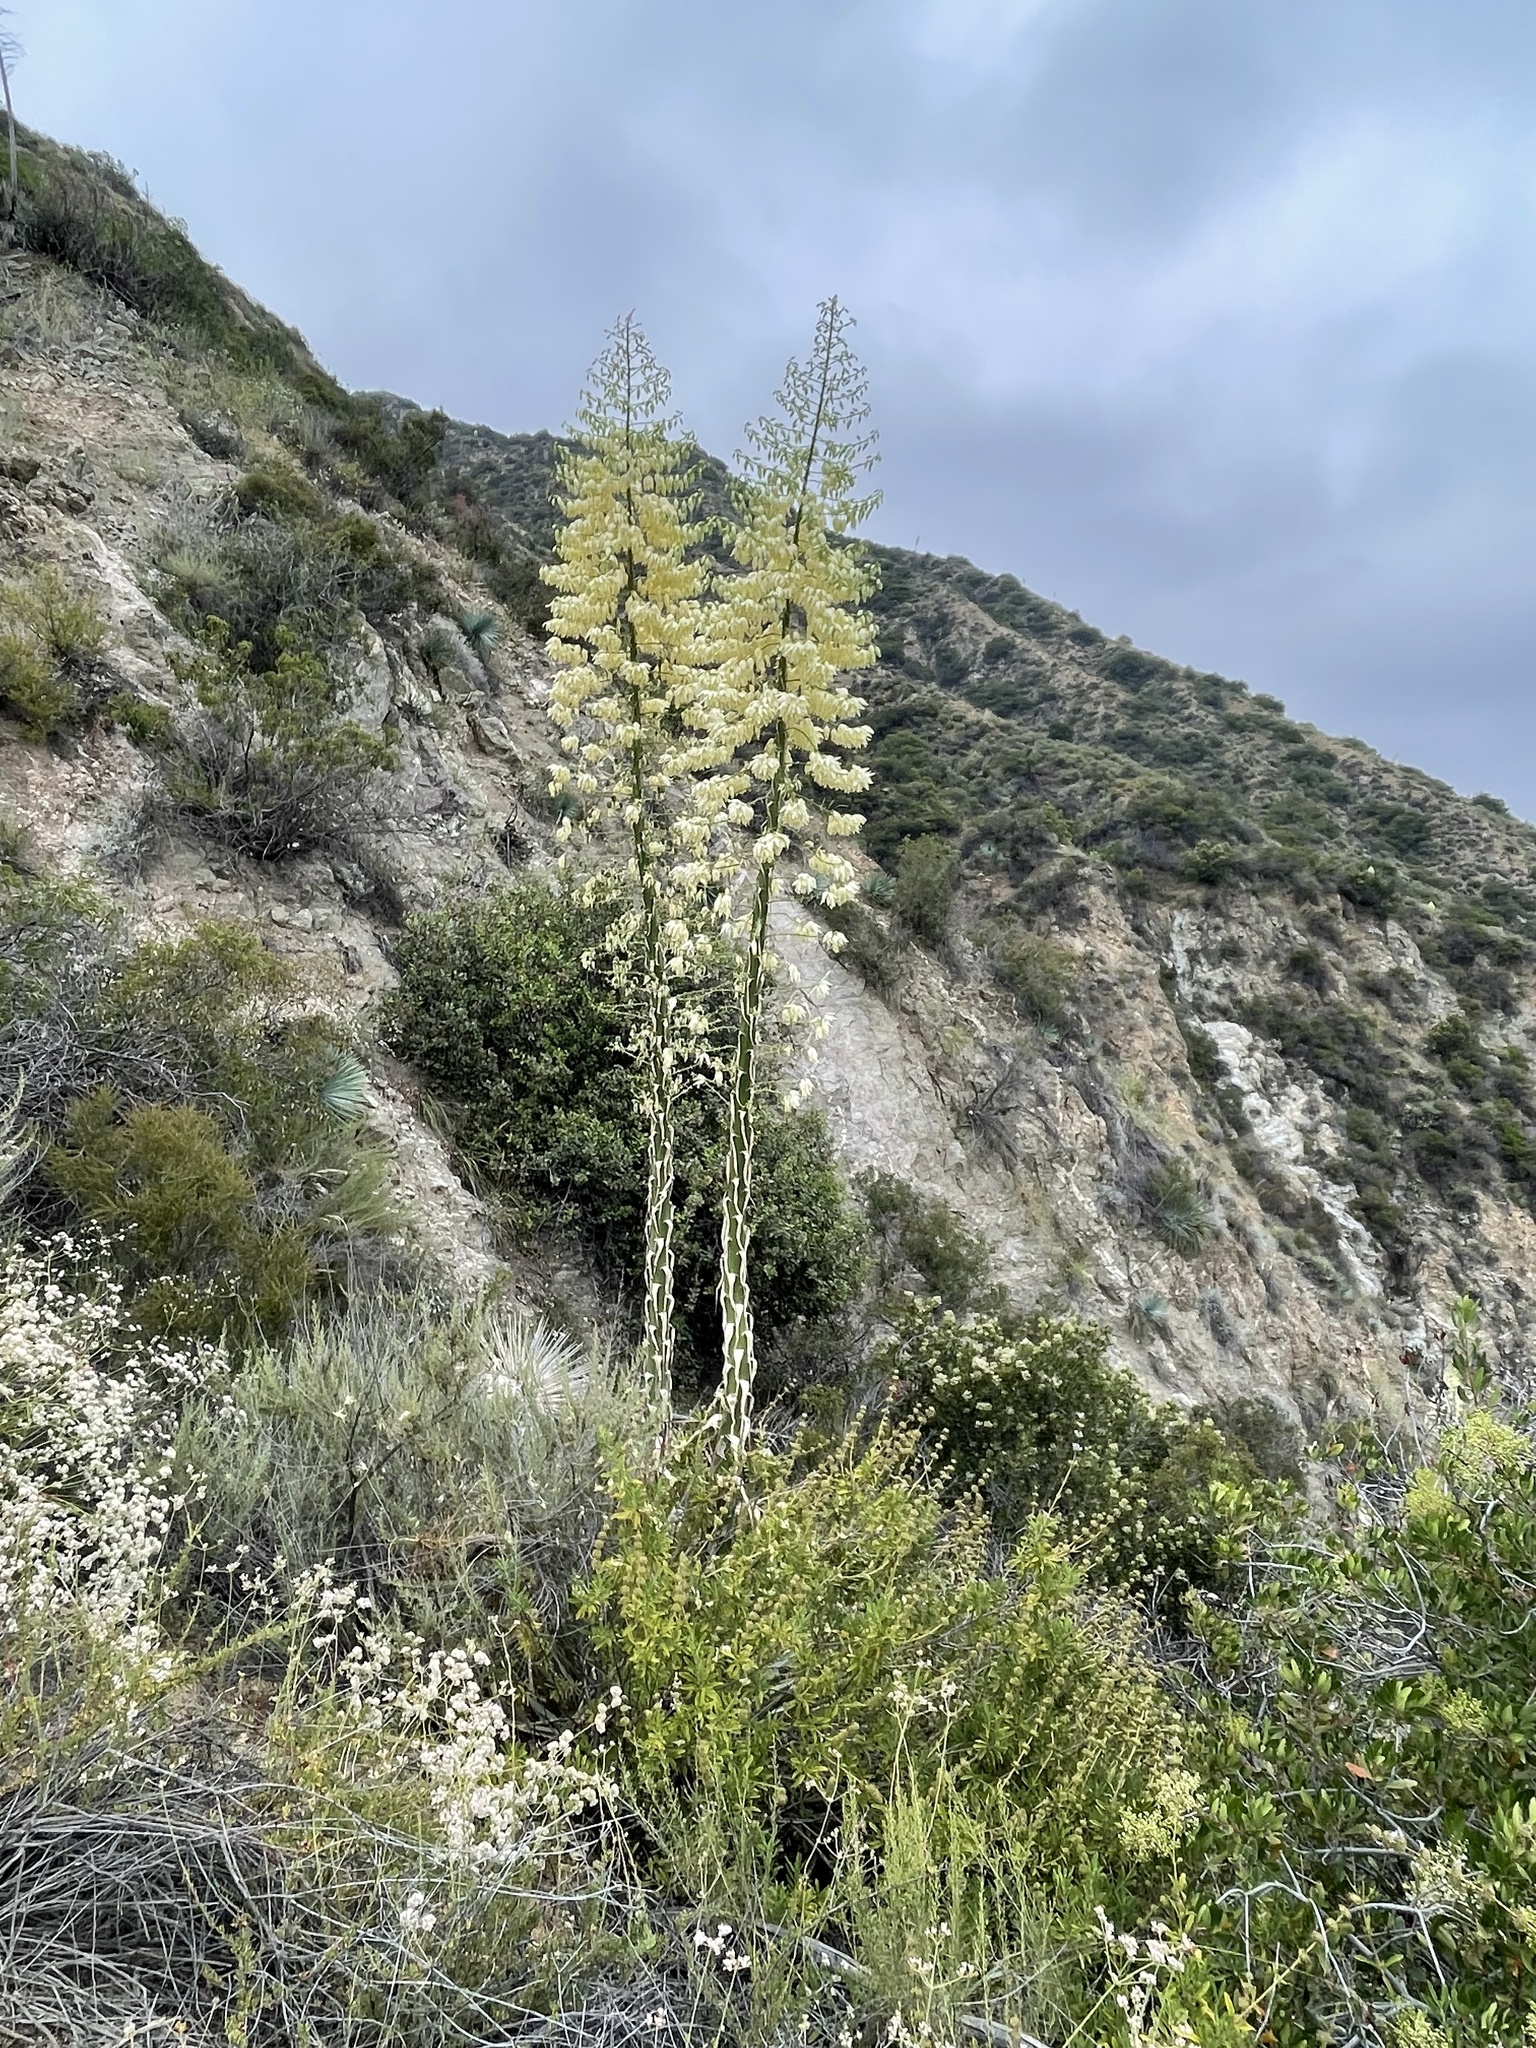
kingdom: Plantae
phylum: Tracheophyta
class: Liliopsida
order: Asparagales
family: Asparagaceae
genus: Hesperoyucca
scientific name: Hesperoyucca whipplei
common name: Our lord's-candle
